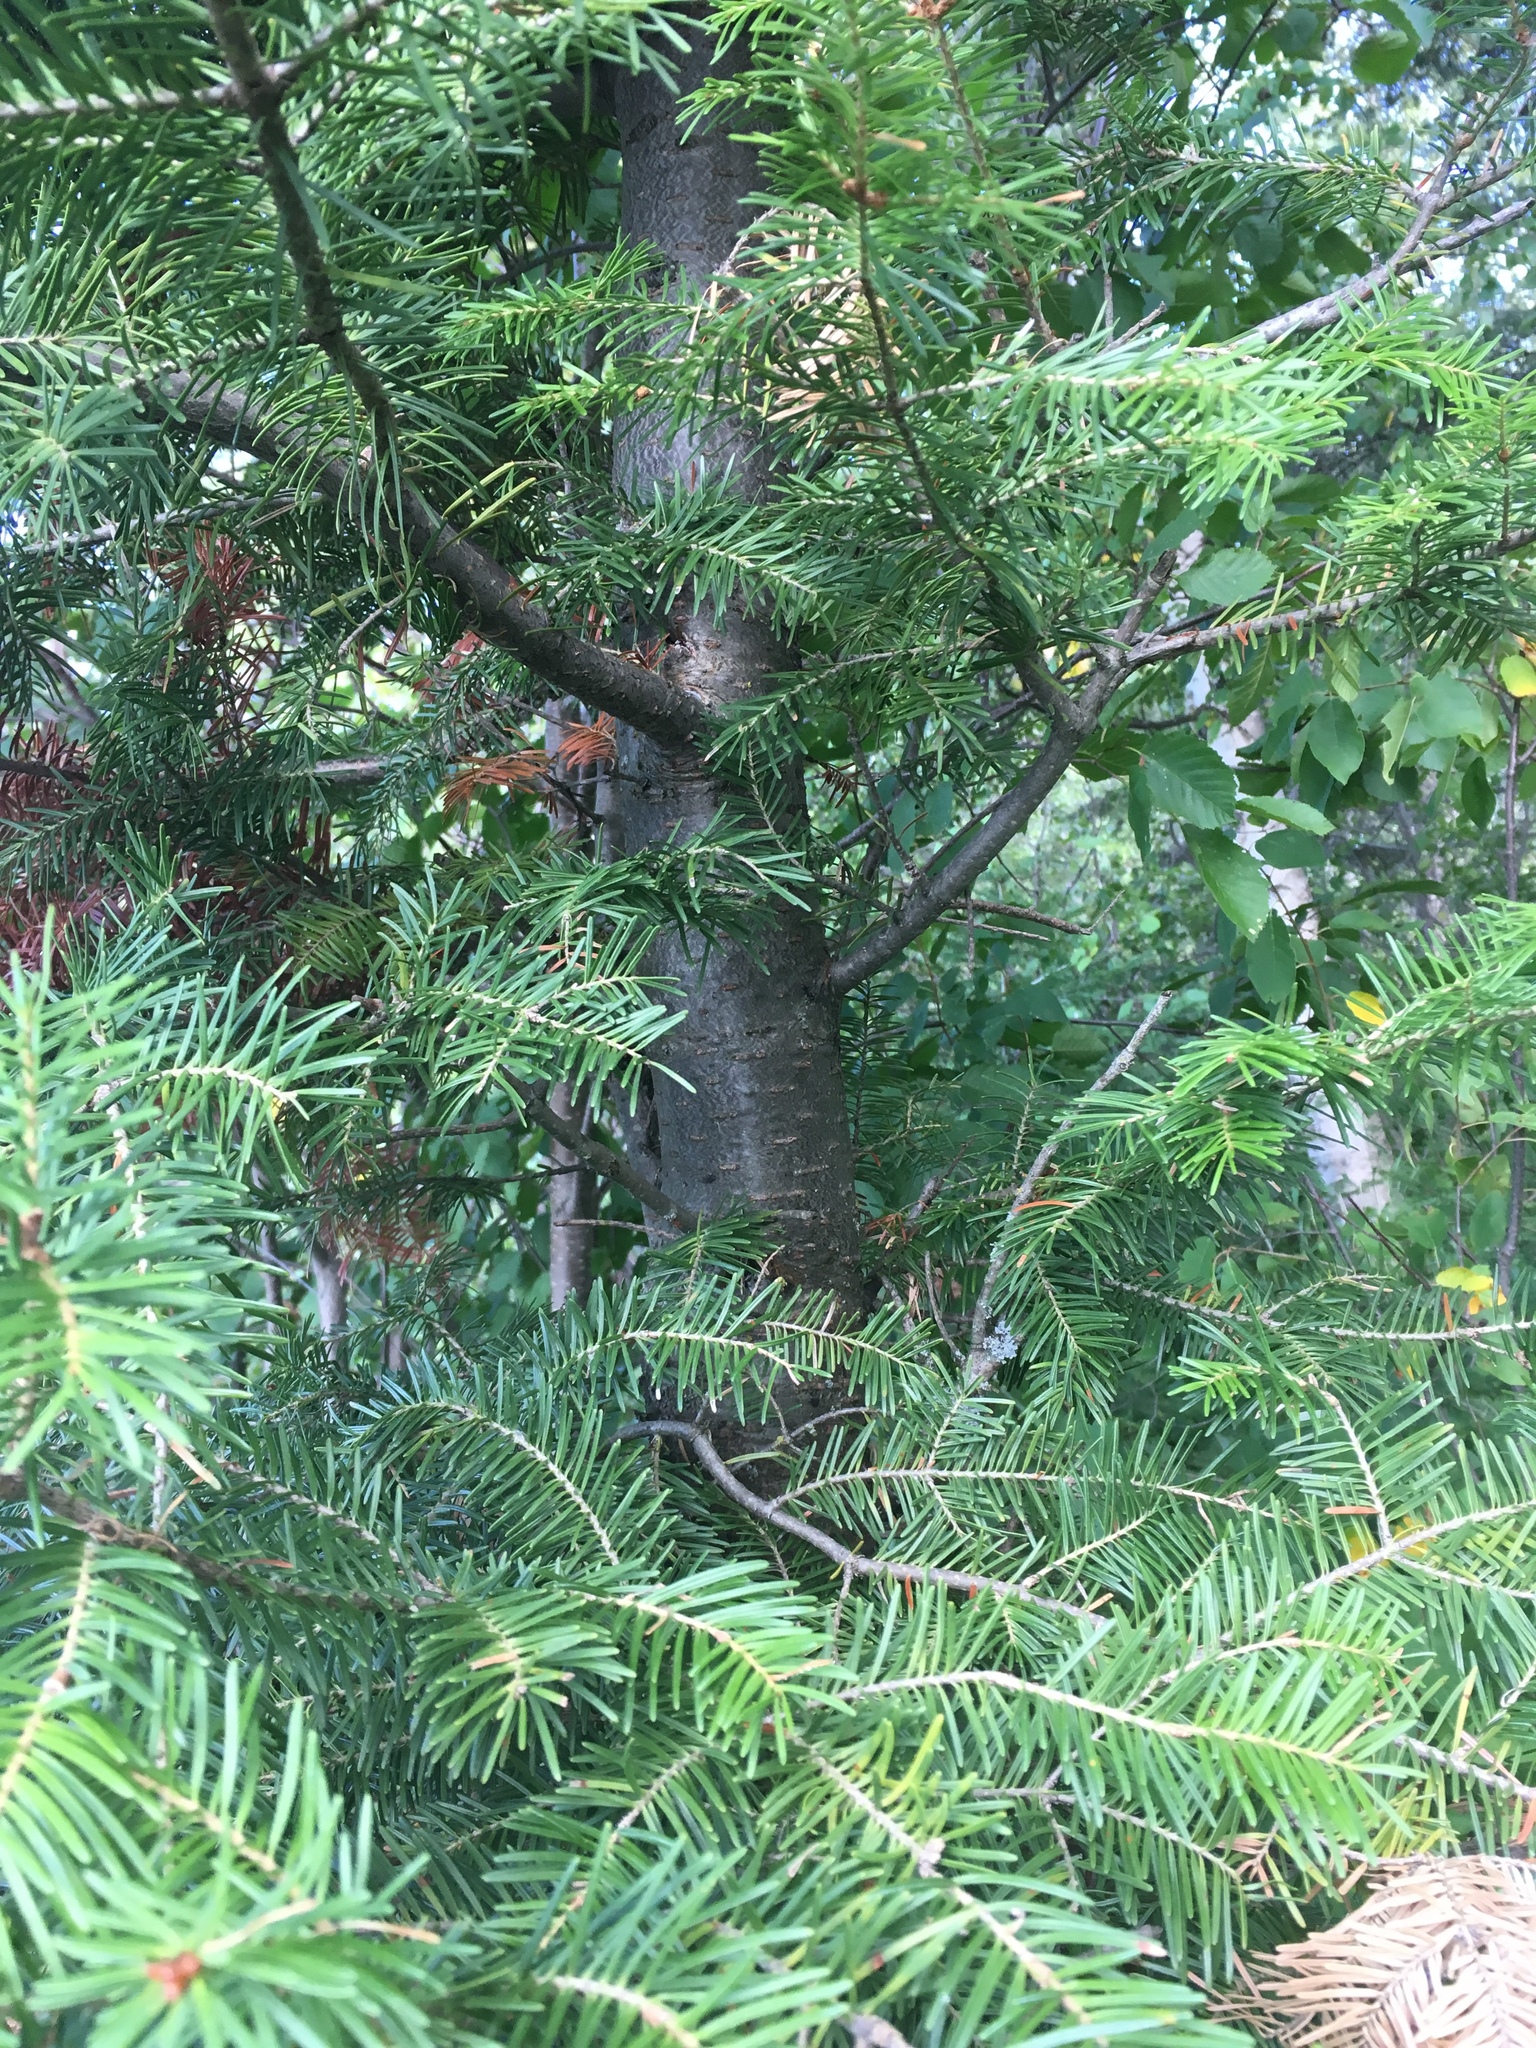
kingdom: Plantae
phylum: Tracheophyta
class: Pinopsida
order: Pinales
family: Pinaceae
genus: Abies
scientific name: Abies balsamea
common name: Balsam fir
